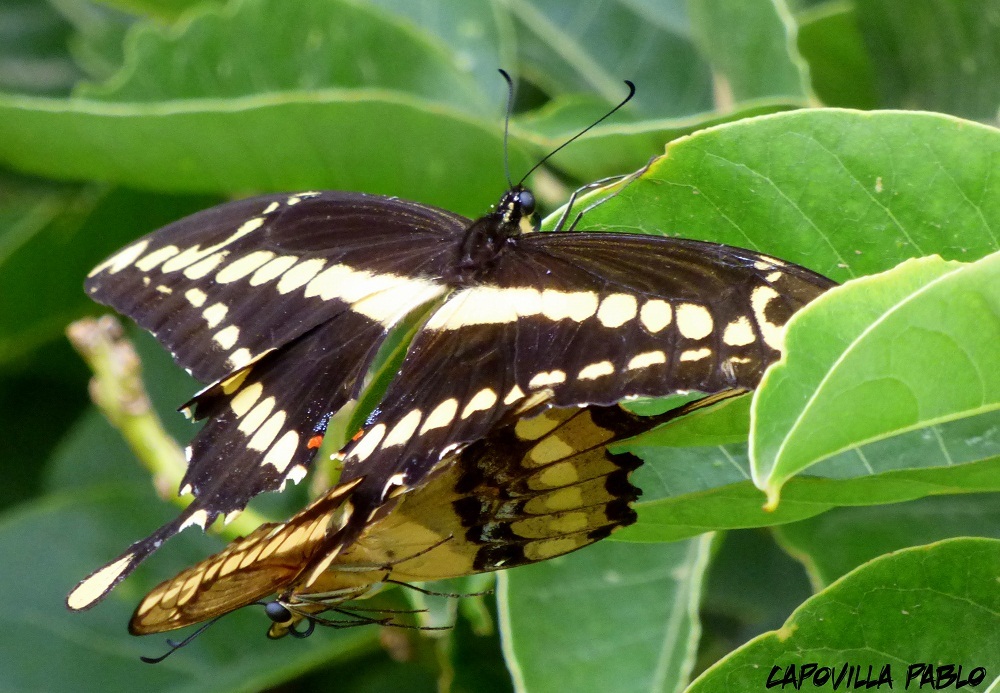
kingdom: Animalia
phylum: Arthropoda
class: Insecta
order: Lepidoptera
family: Papilionidae
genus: Papilio
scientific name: Papilio thoas
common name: King swallowtail
